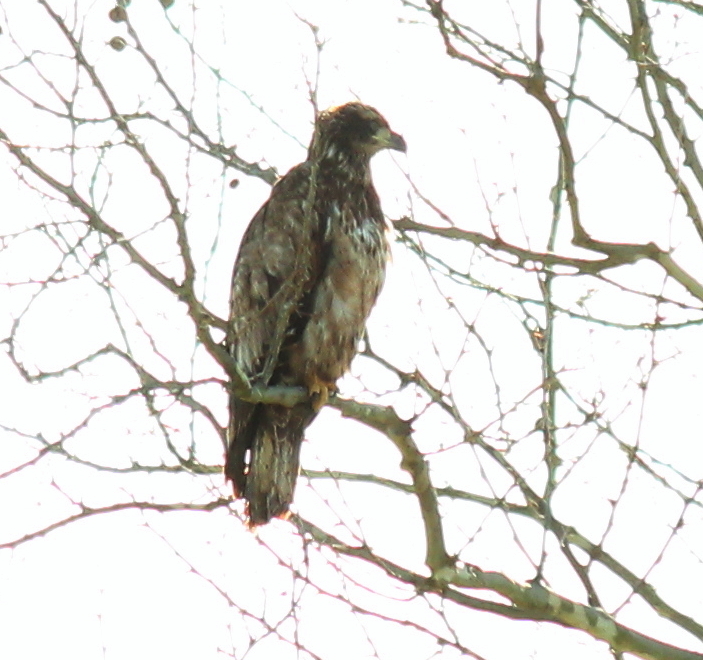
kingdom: Animalia
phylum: Chordata
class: Aves
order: Accipitriformes
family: Accipitridae
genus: Haliaeetus
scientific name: Haliaeetus leucocephalus
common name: Bald eagle
